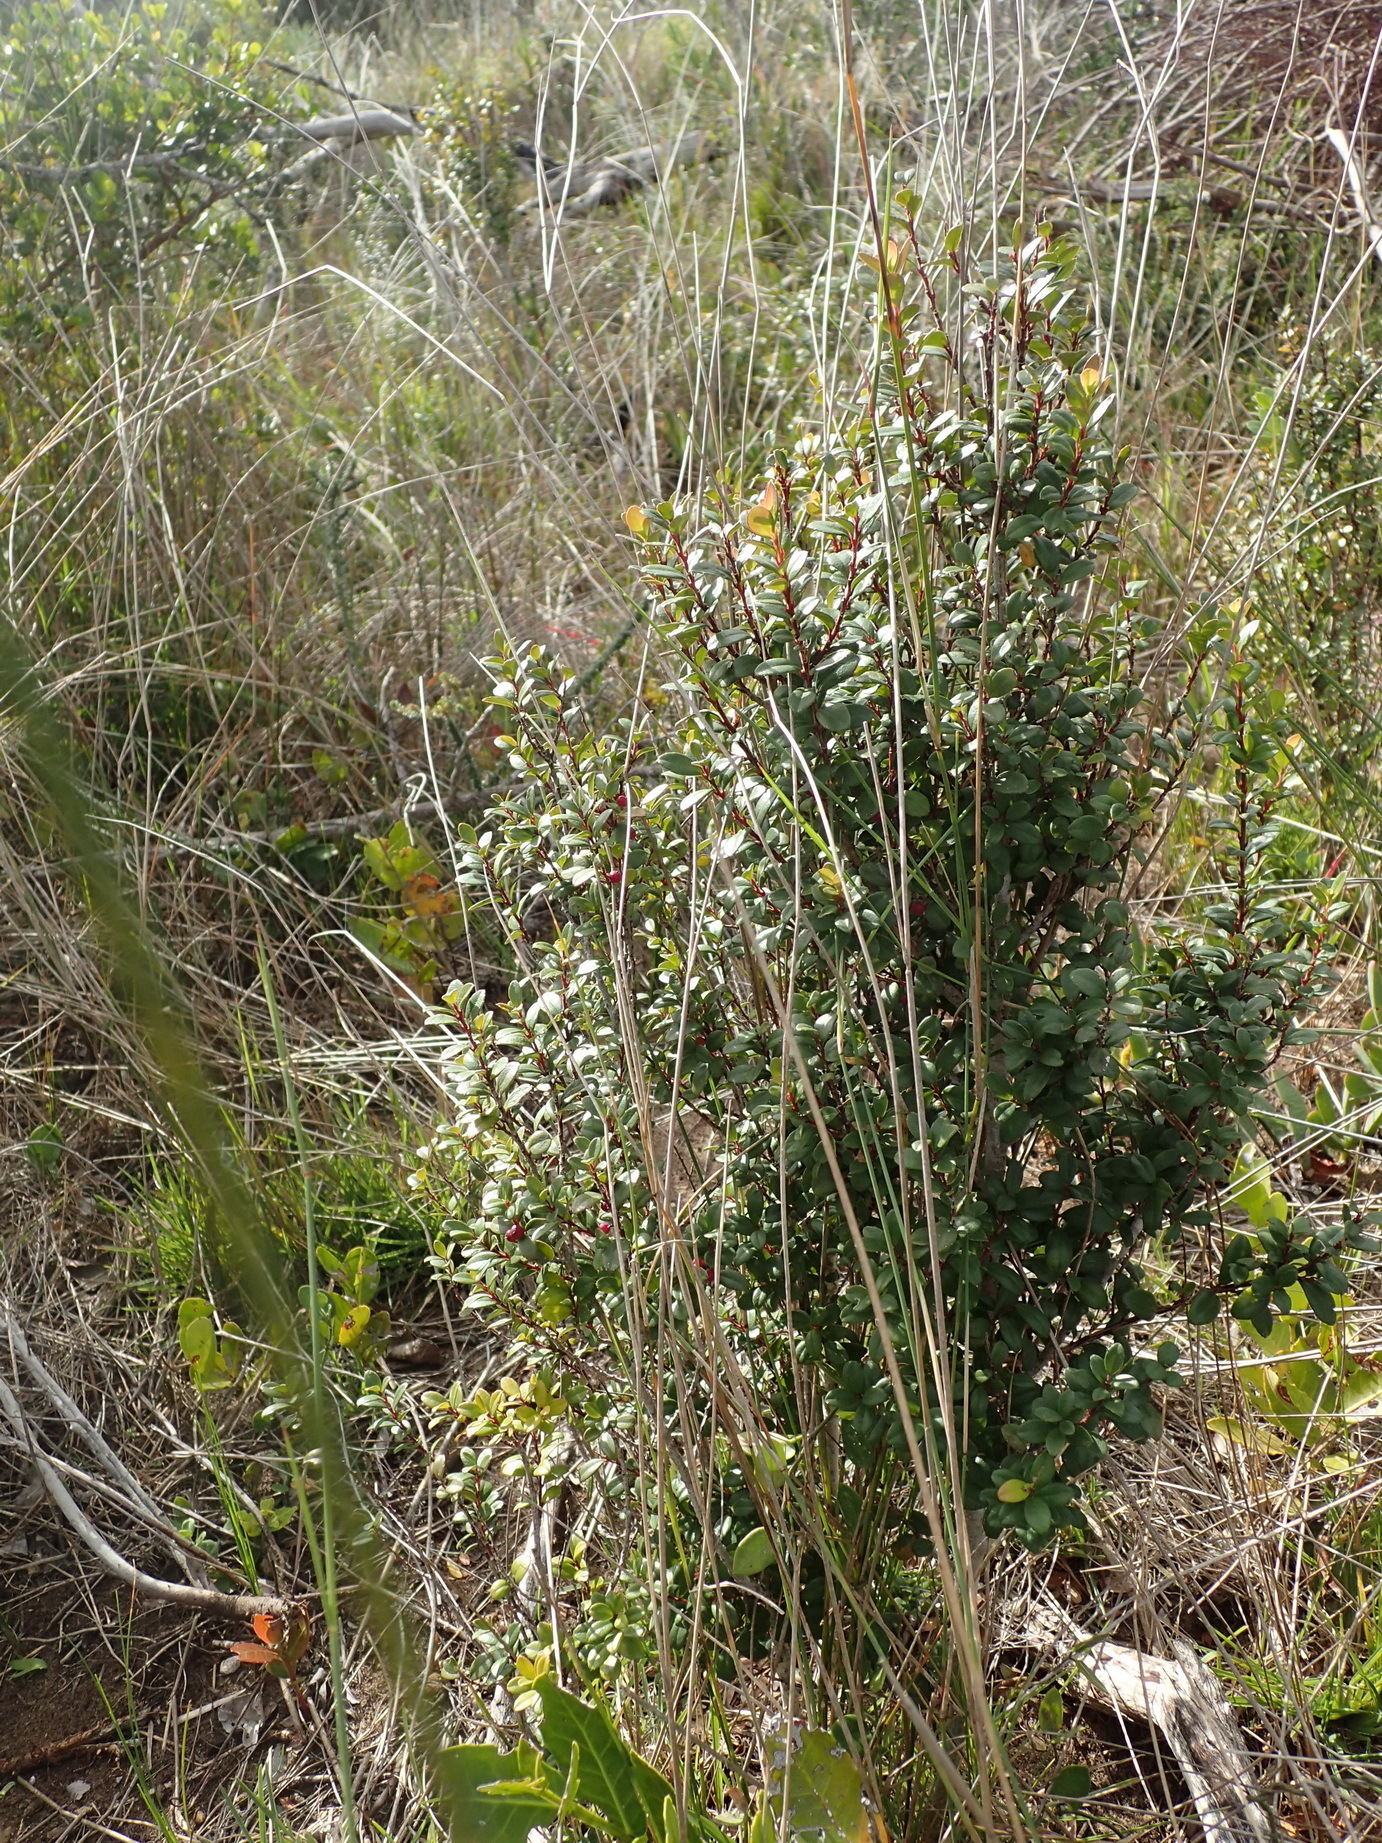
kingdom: Plantae
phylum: Tracheophyta
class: Magnoliopsida
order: Ericales
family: Primulaceae
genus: Myrsine
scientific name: Myrsine africana
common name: African-boxwood
